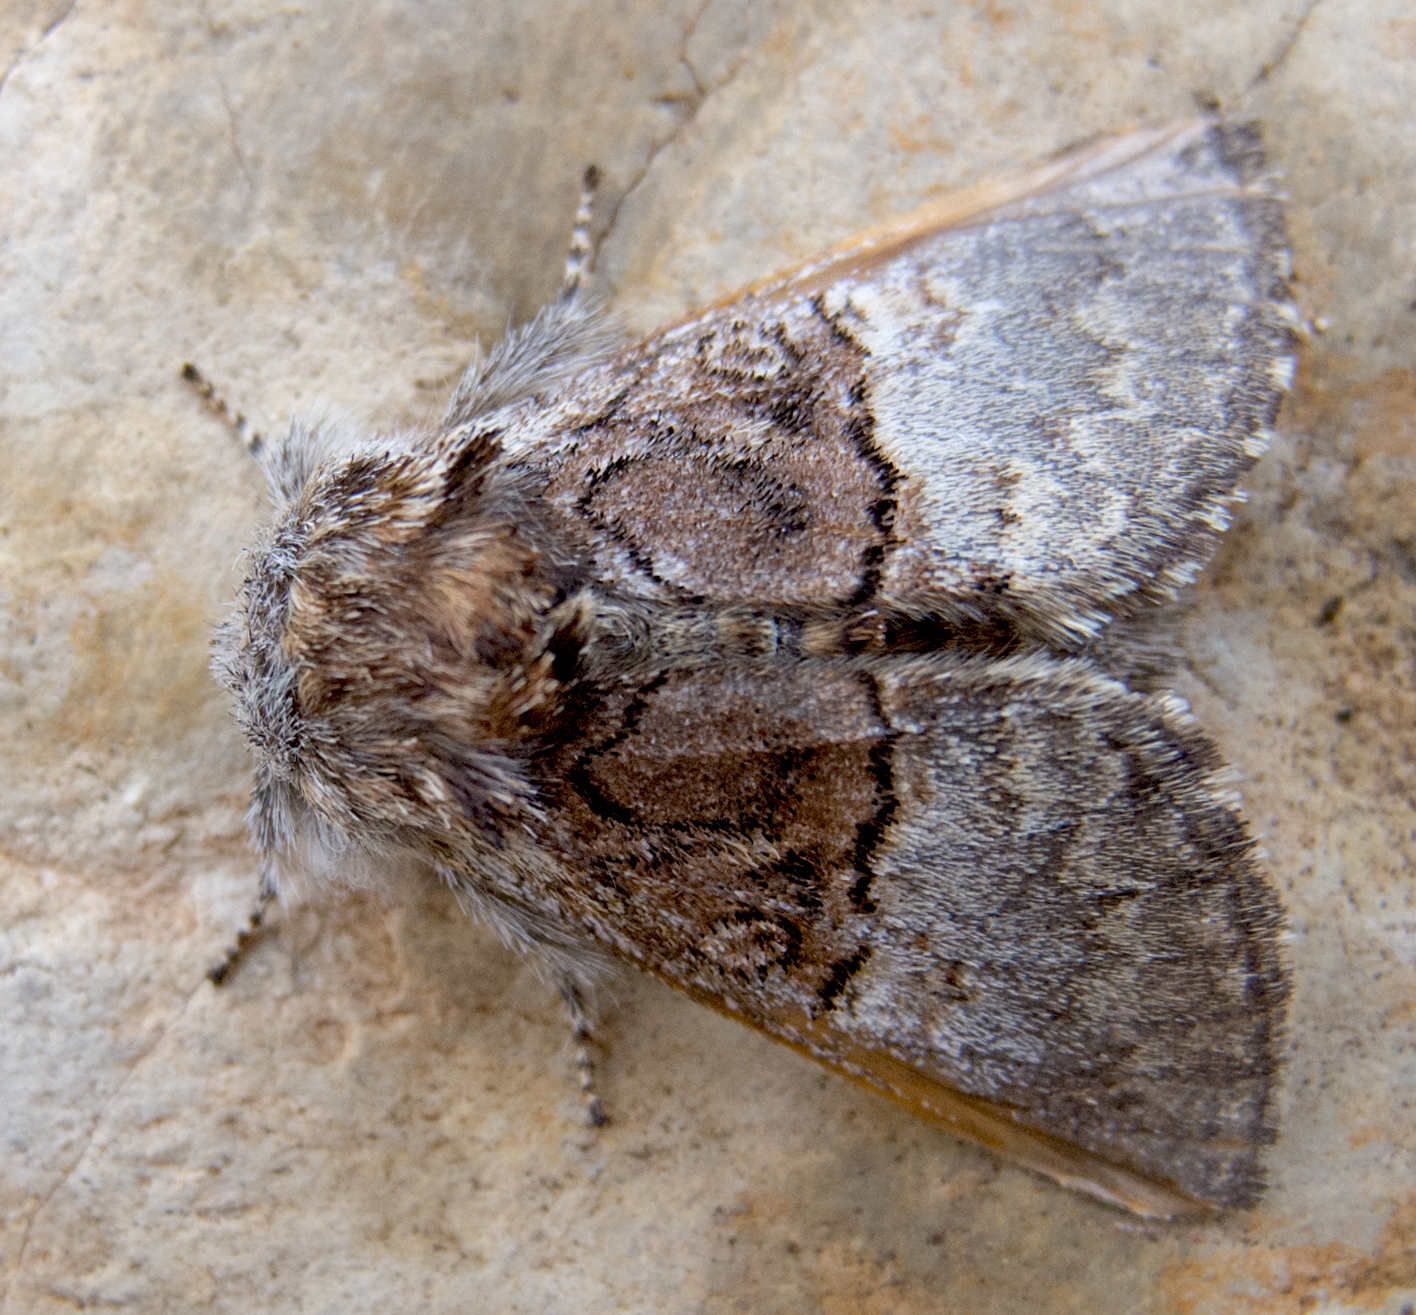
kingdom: Animalia
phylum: Arthropoda
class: Insecta
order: Lepidoptera
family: Noctuidae
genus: Colocasia
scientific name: Colocasia coryli
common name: Nut-tree tussock
